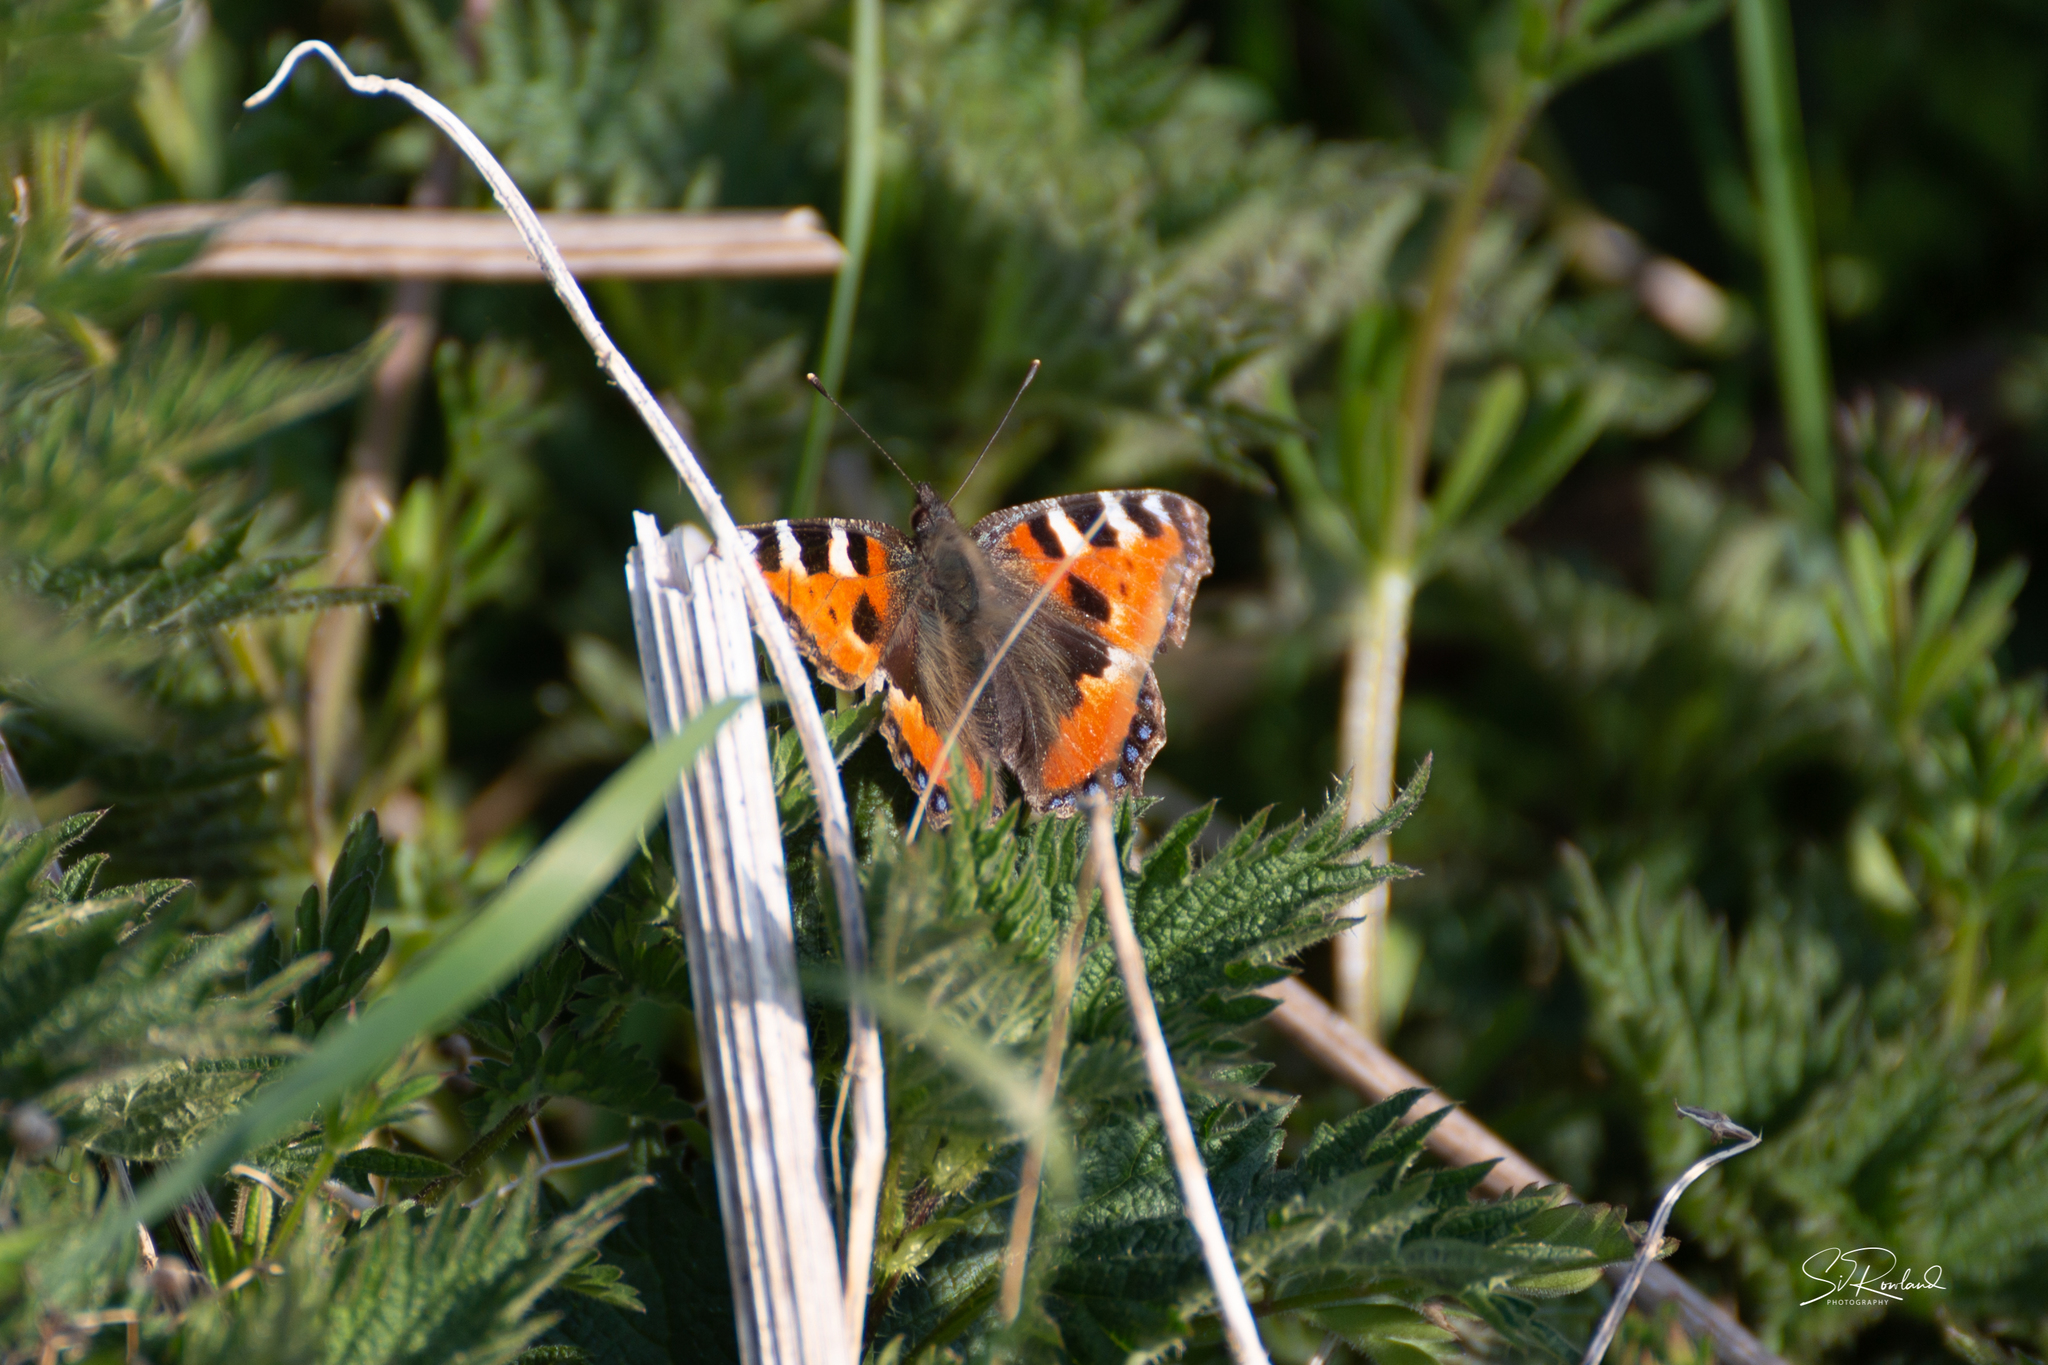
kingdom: Animalia
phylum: Arthropoda
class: Insecta
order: Lepidoptera
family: Nymphalidae
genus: Aglais
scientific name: Aglais urticae
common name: Small tortoiseshell
